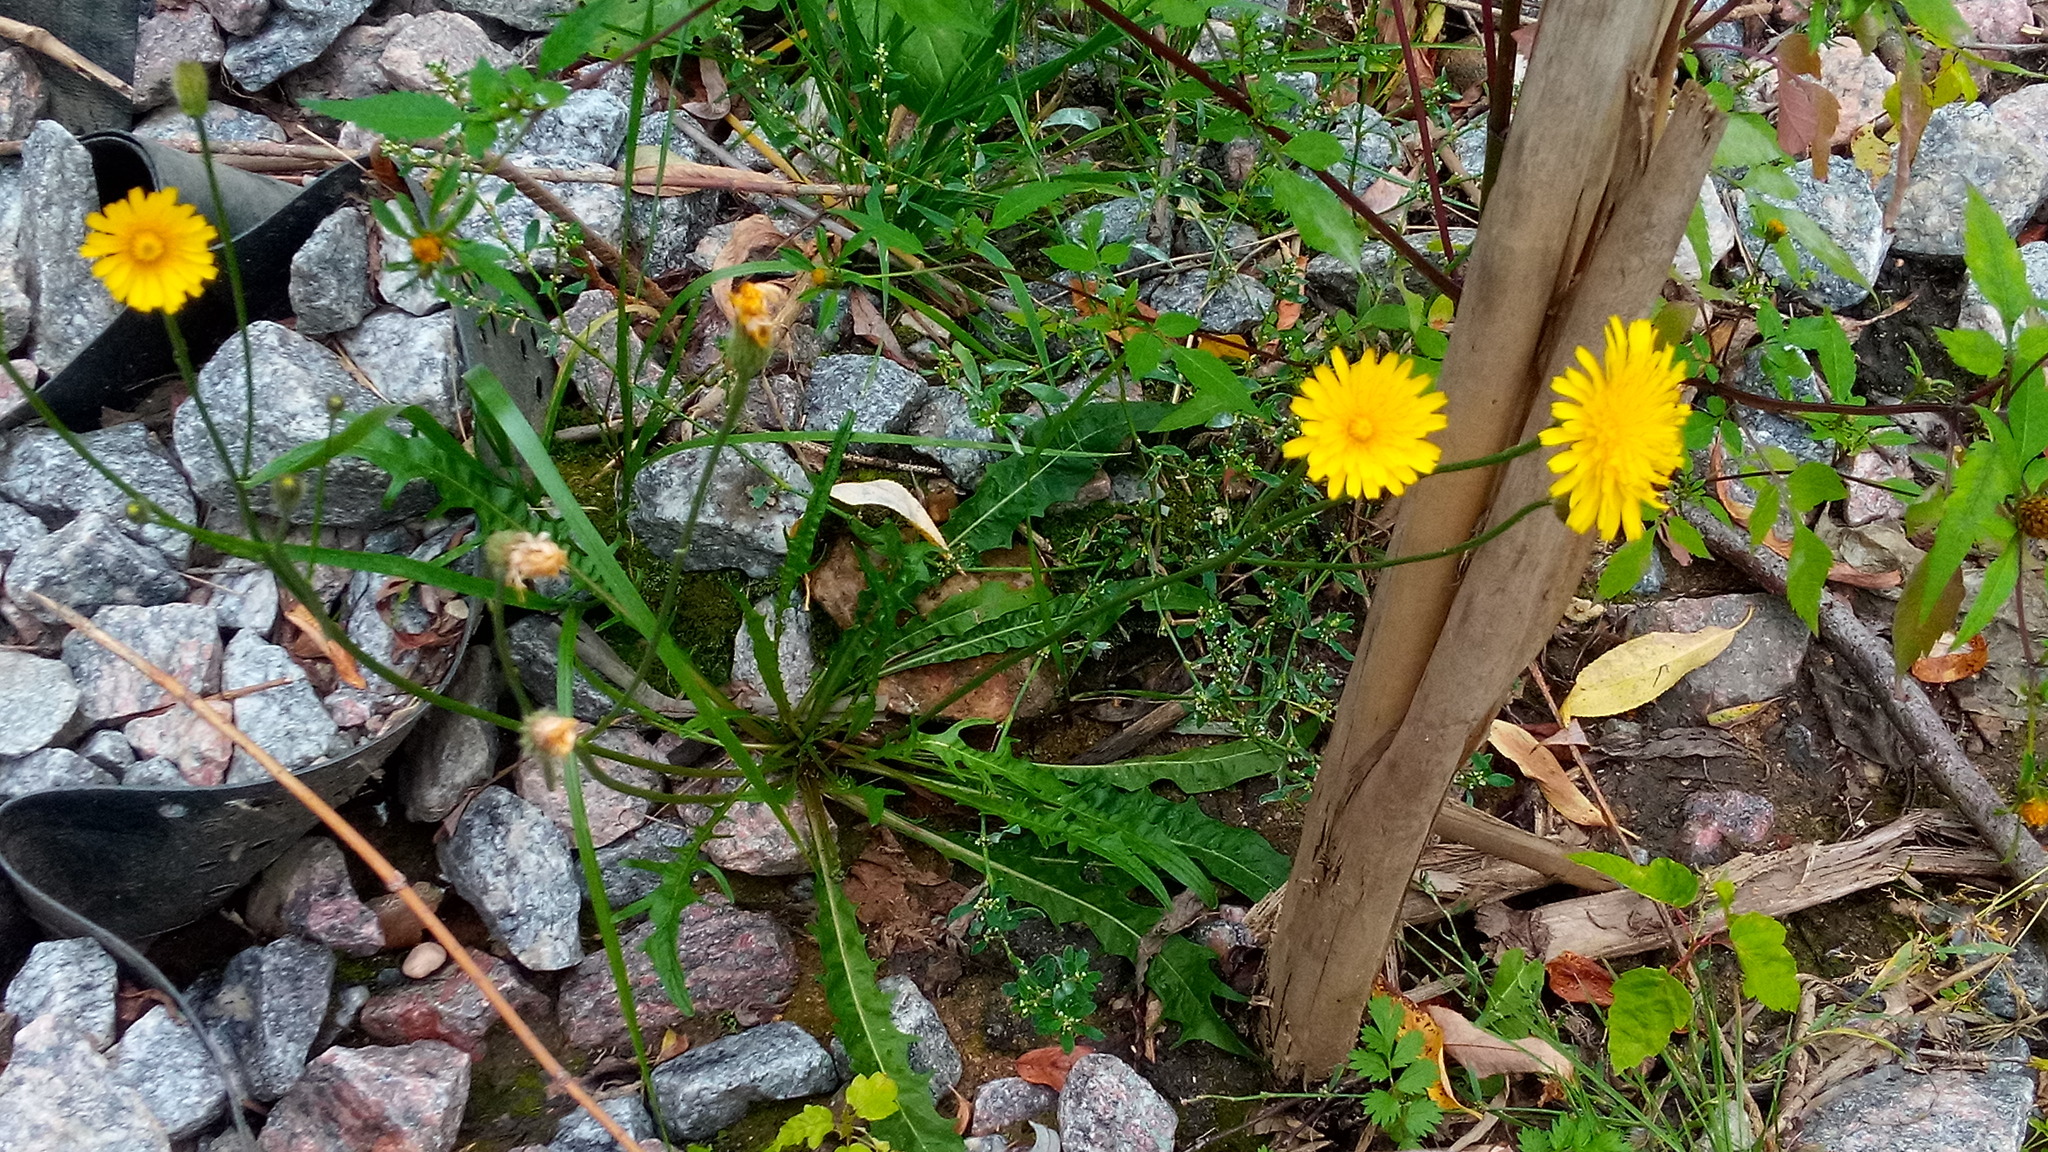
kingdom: Plantae
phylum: Tracheophyta
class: Magnoliopsida
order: Asterales
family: Asteraceae
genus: Scorzoneroides
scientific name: Scorzoneroides autumnalis
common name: Autumn hawkbit
